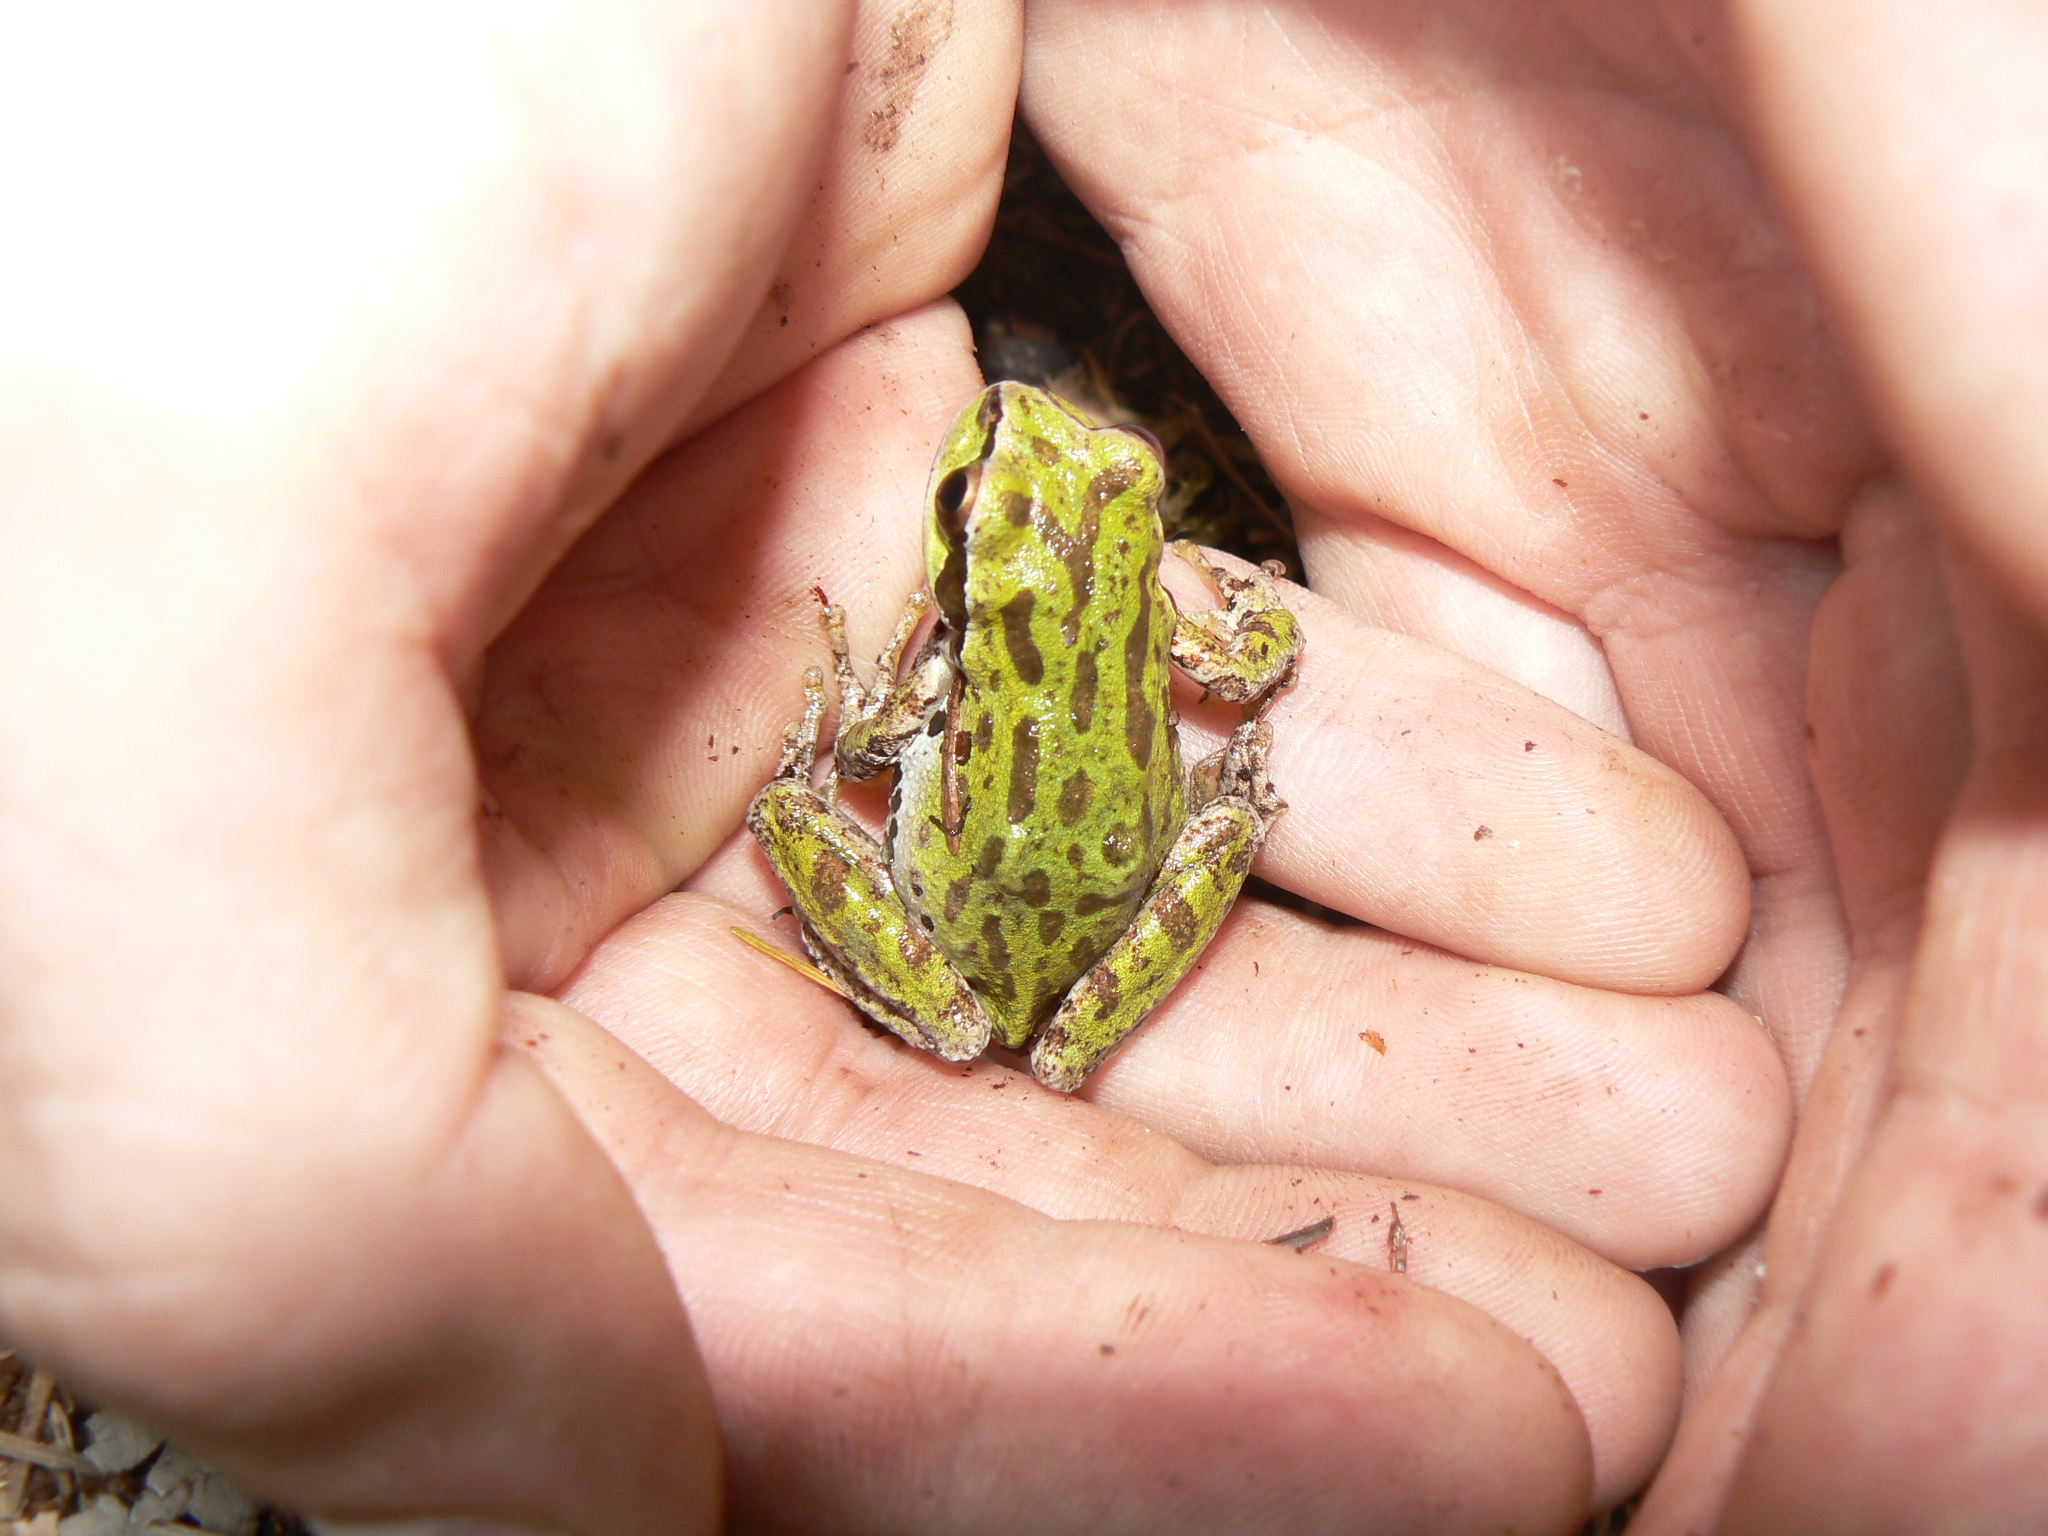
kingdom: Animalia
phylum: Chordata
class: Amphibia
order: Anura
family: Hylidae
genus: Pseudacris
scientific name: Pseudacris regilla
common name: Pacific chorus frog
